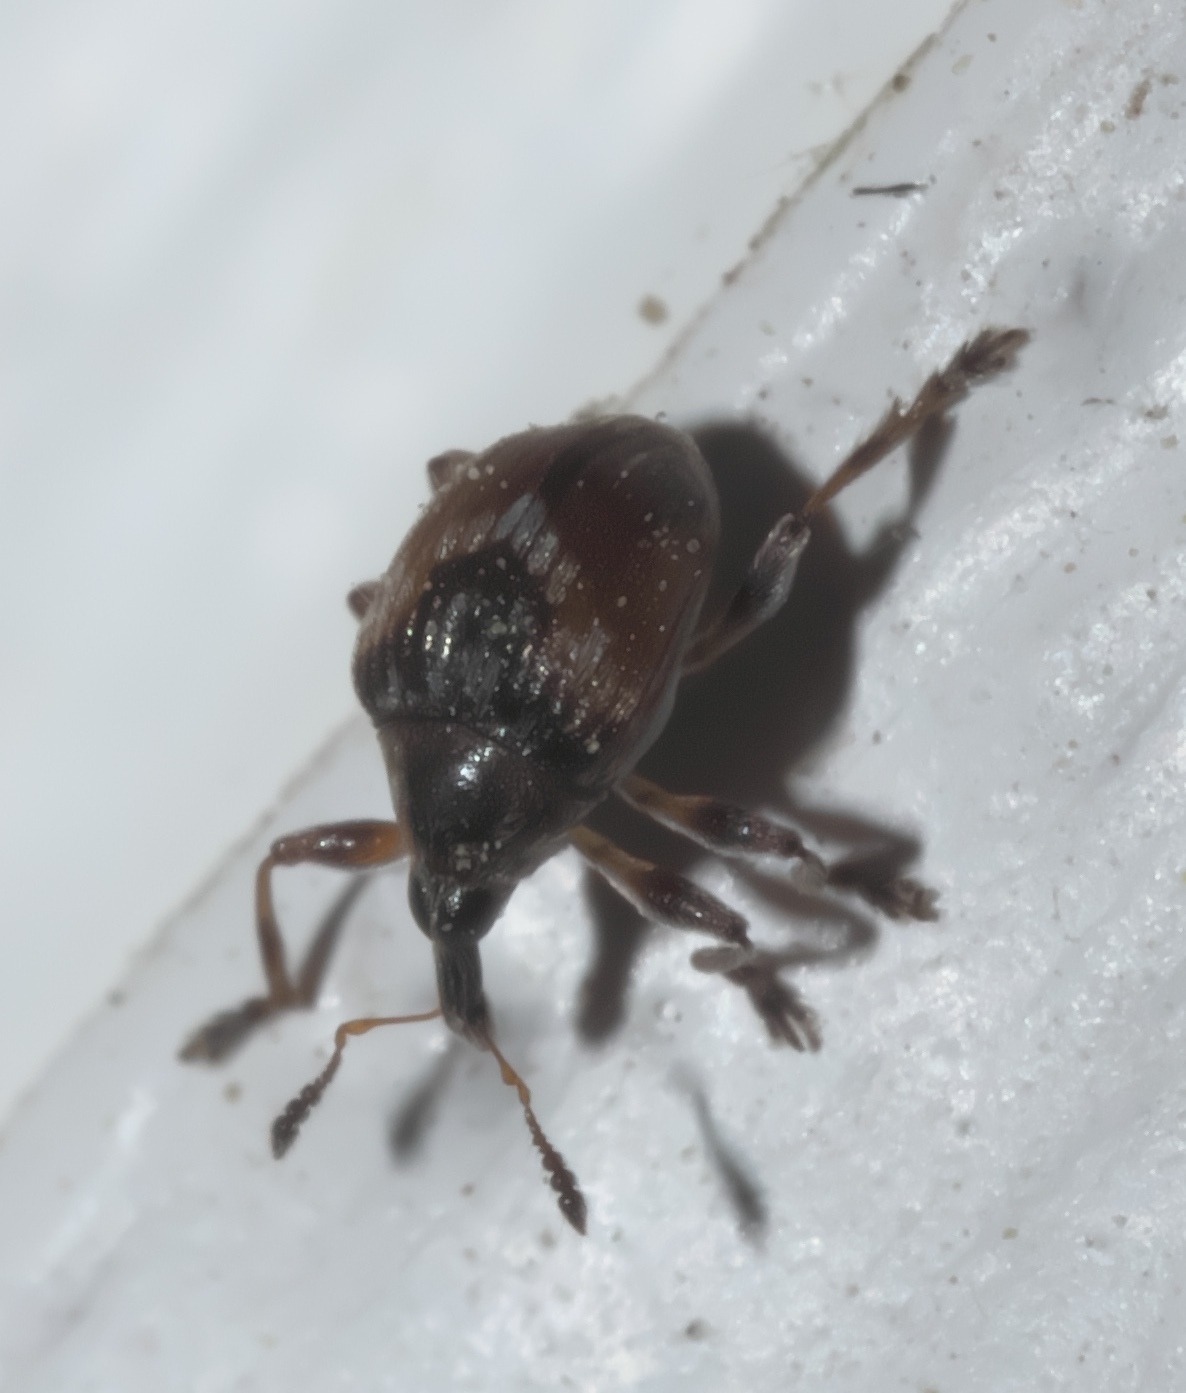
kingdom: Animalia
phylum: Arthropoda
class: Insecta
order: Coleoptera
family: Brentidae
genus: Nanodactylus
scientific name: Nanodactylus
